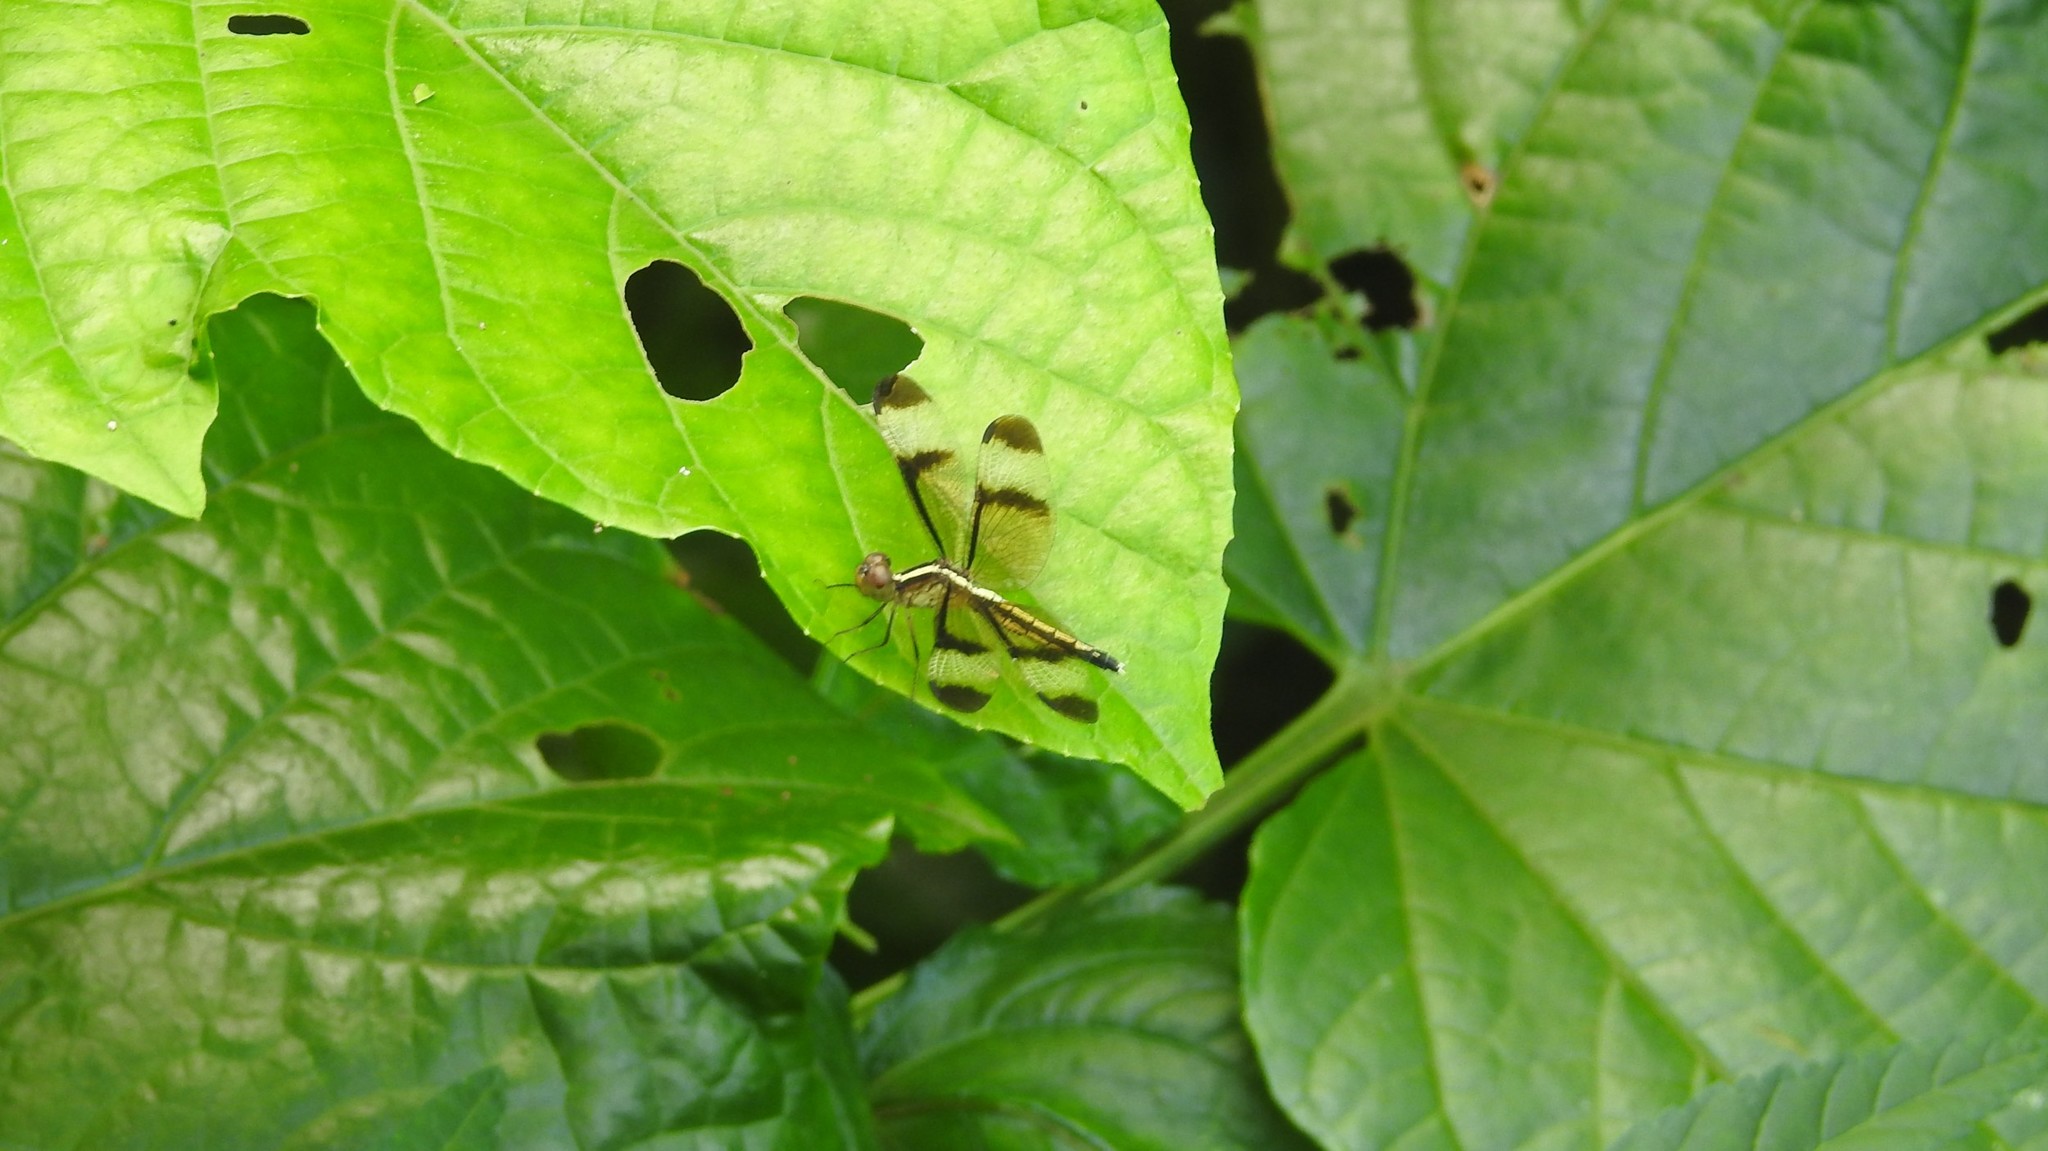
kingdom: Animalia
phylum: Arthropoda
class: Insecta
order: Odonata
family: Libellulidae
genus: Neurothemis
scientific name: Neurothemis tullia
